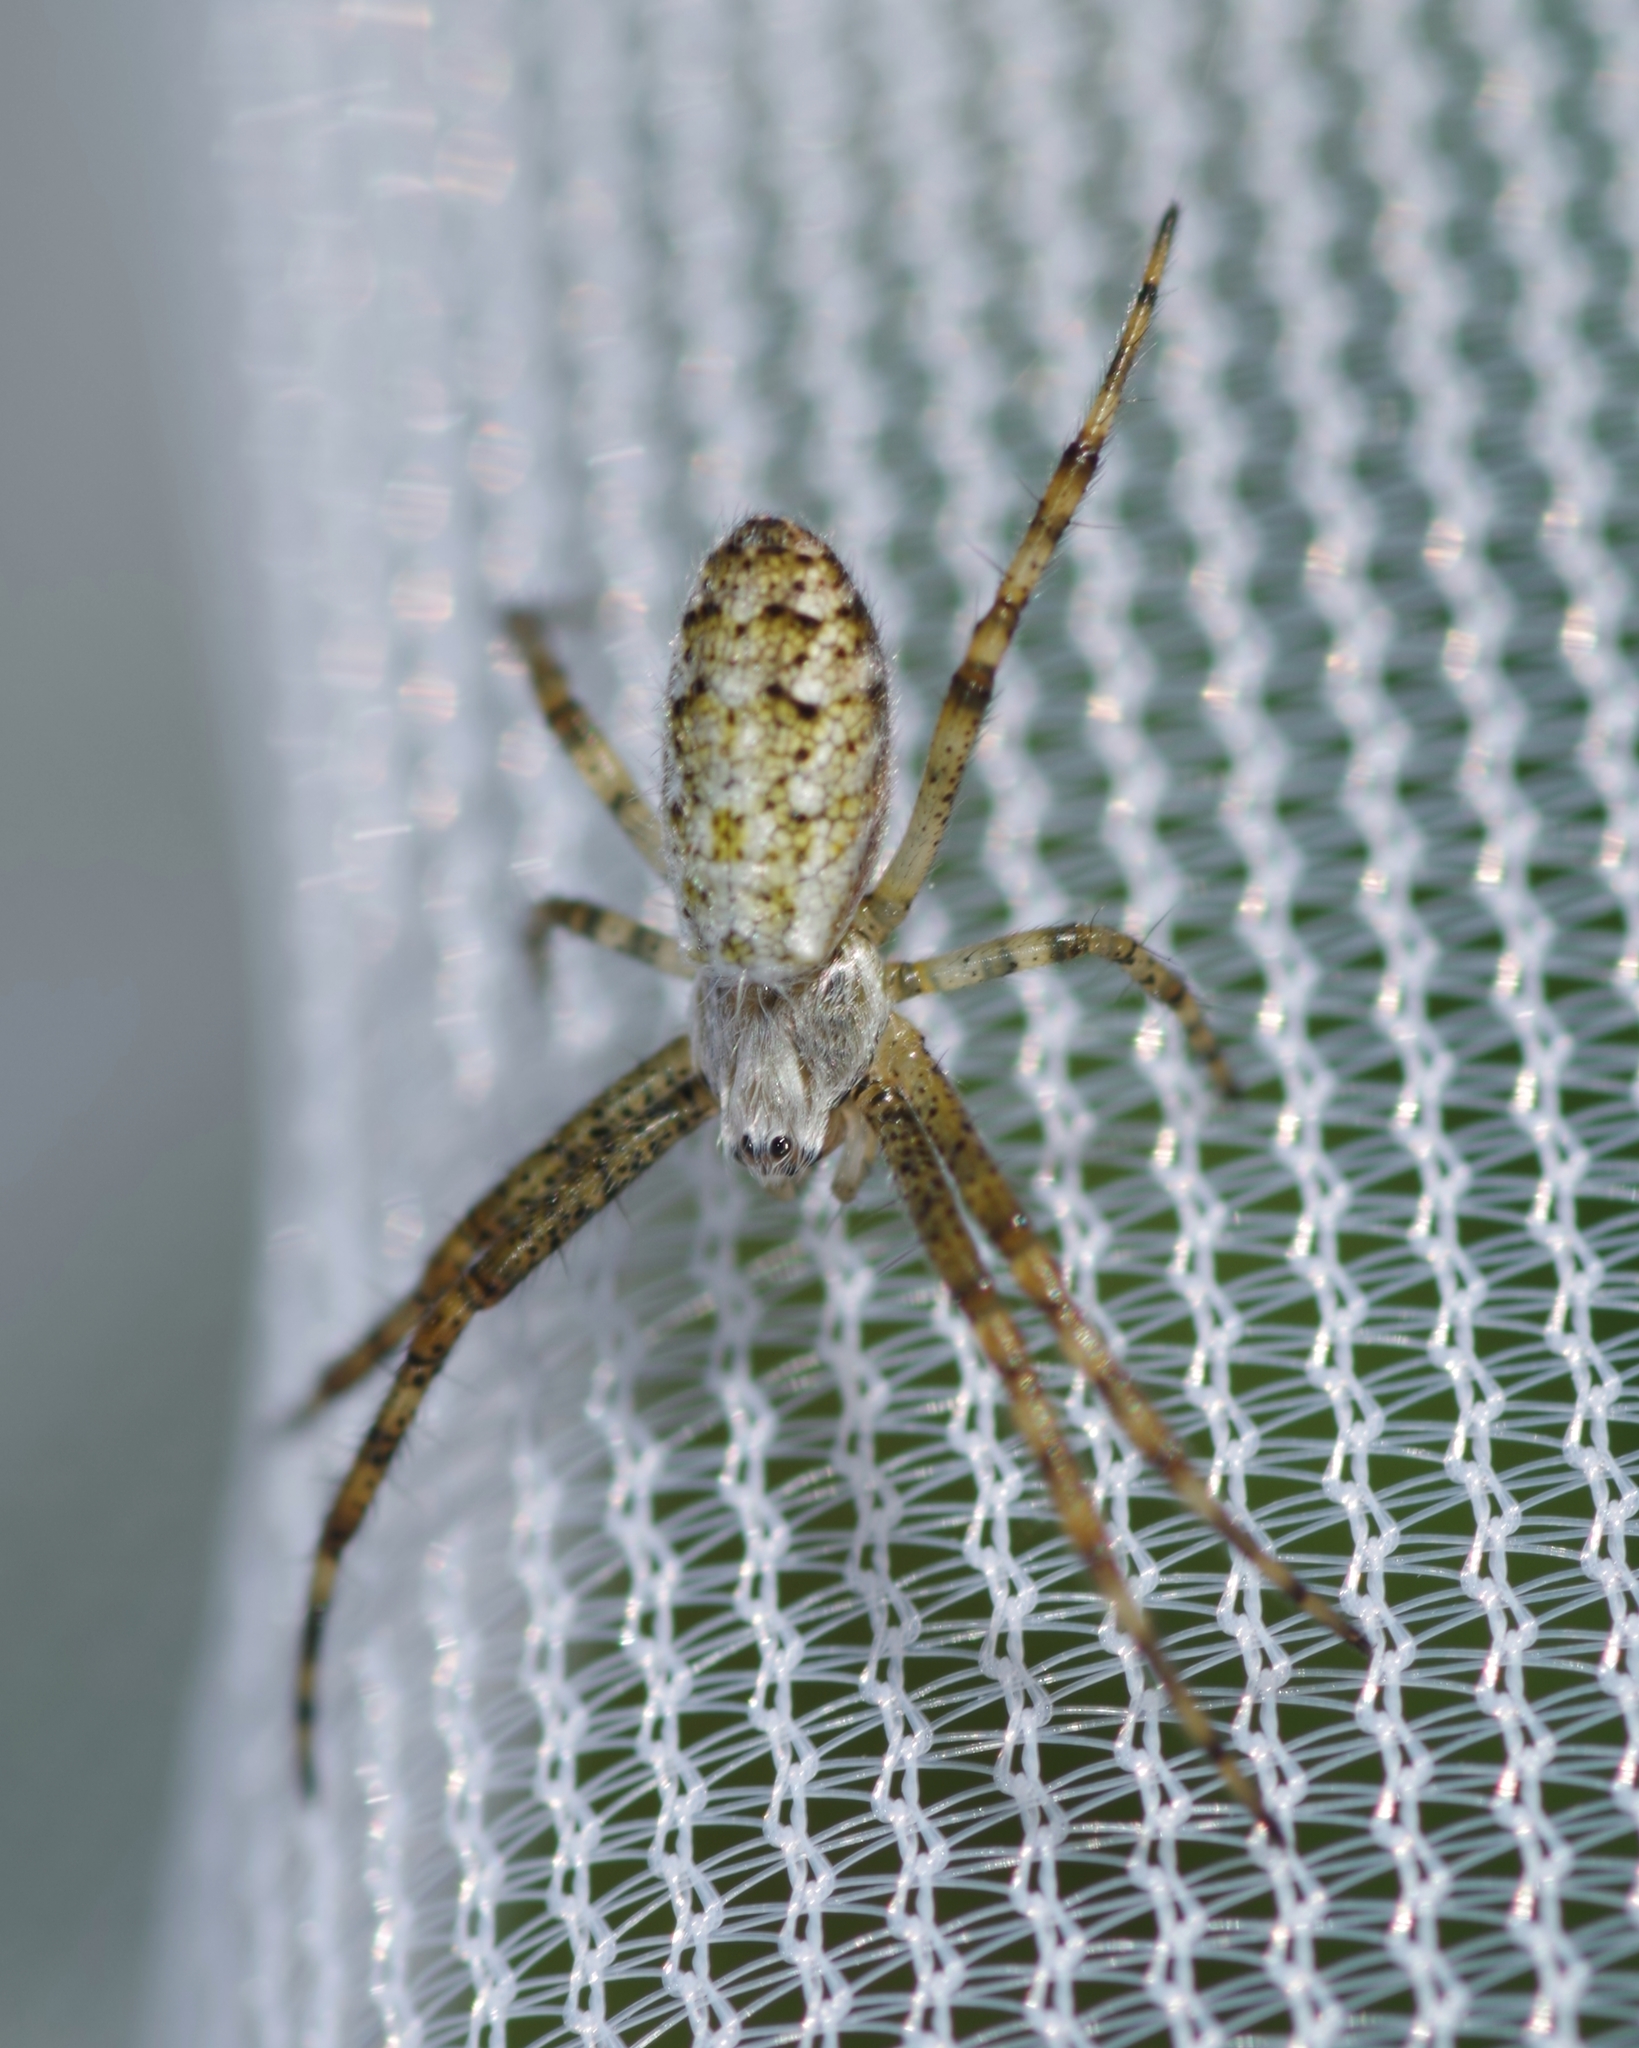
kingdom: Animalia
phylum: Arthropoda
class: Arachnida
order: Araneae
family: Araneidae
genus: Argiope
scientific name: Argiope bruennichi
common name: Wasp spider
